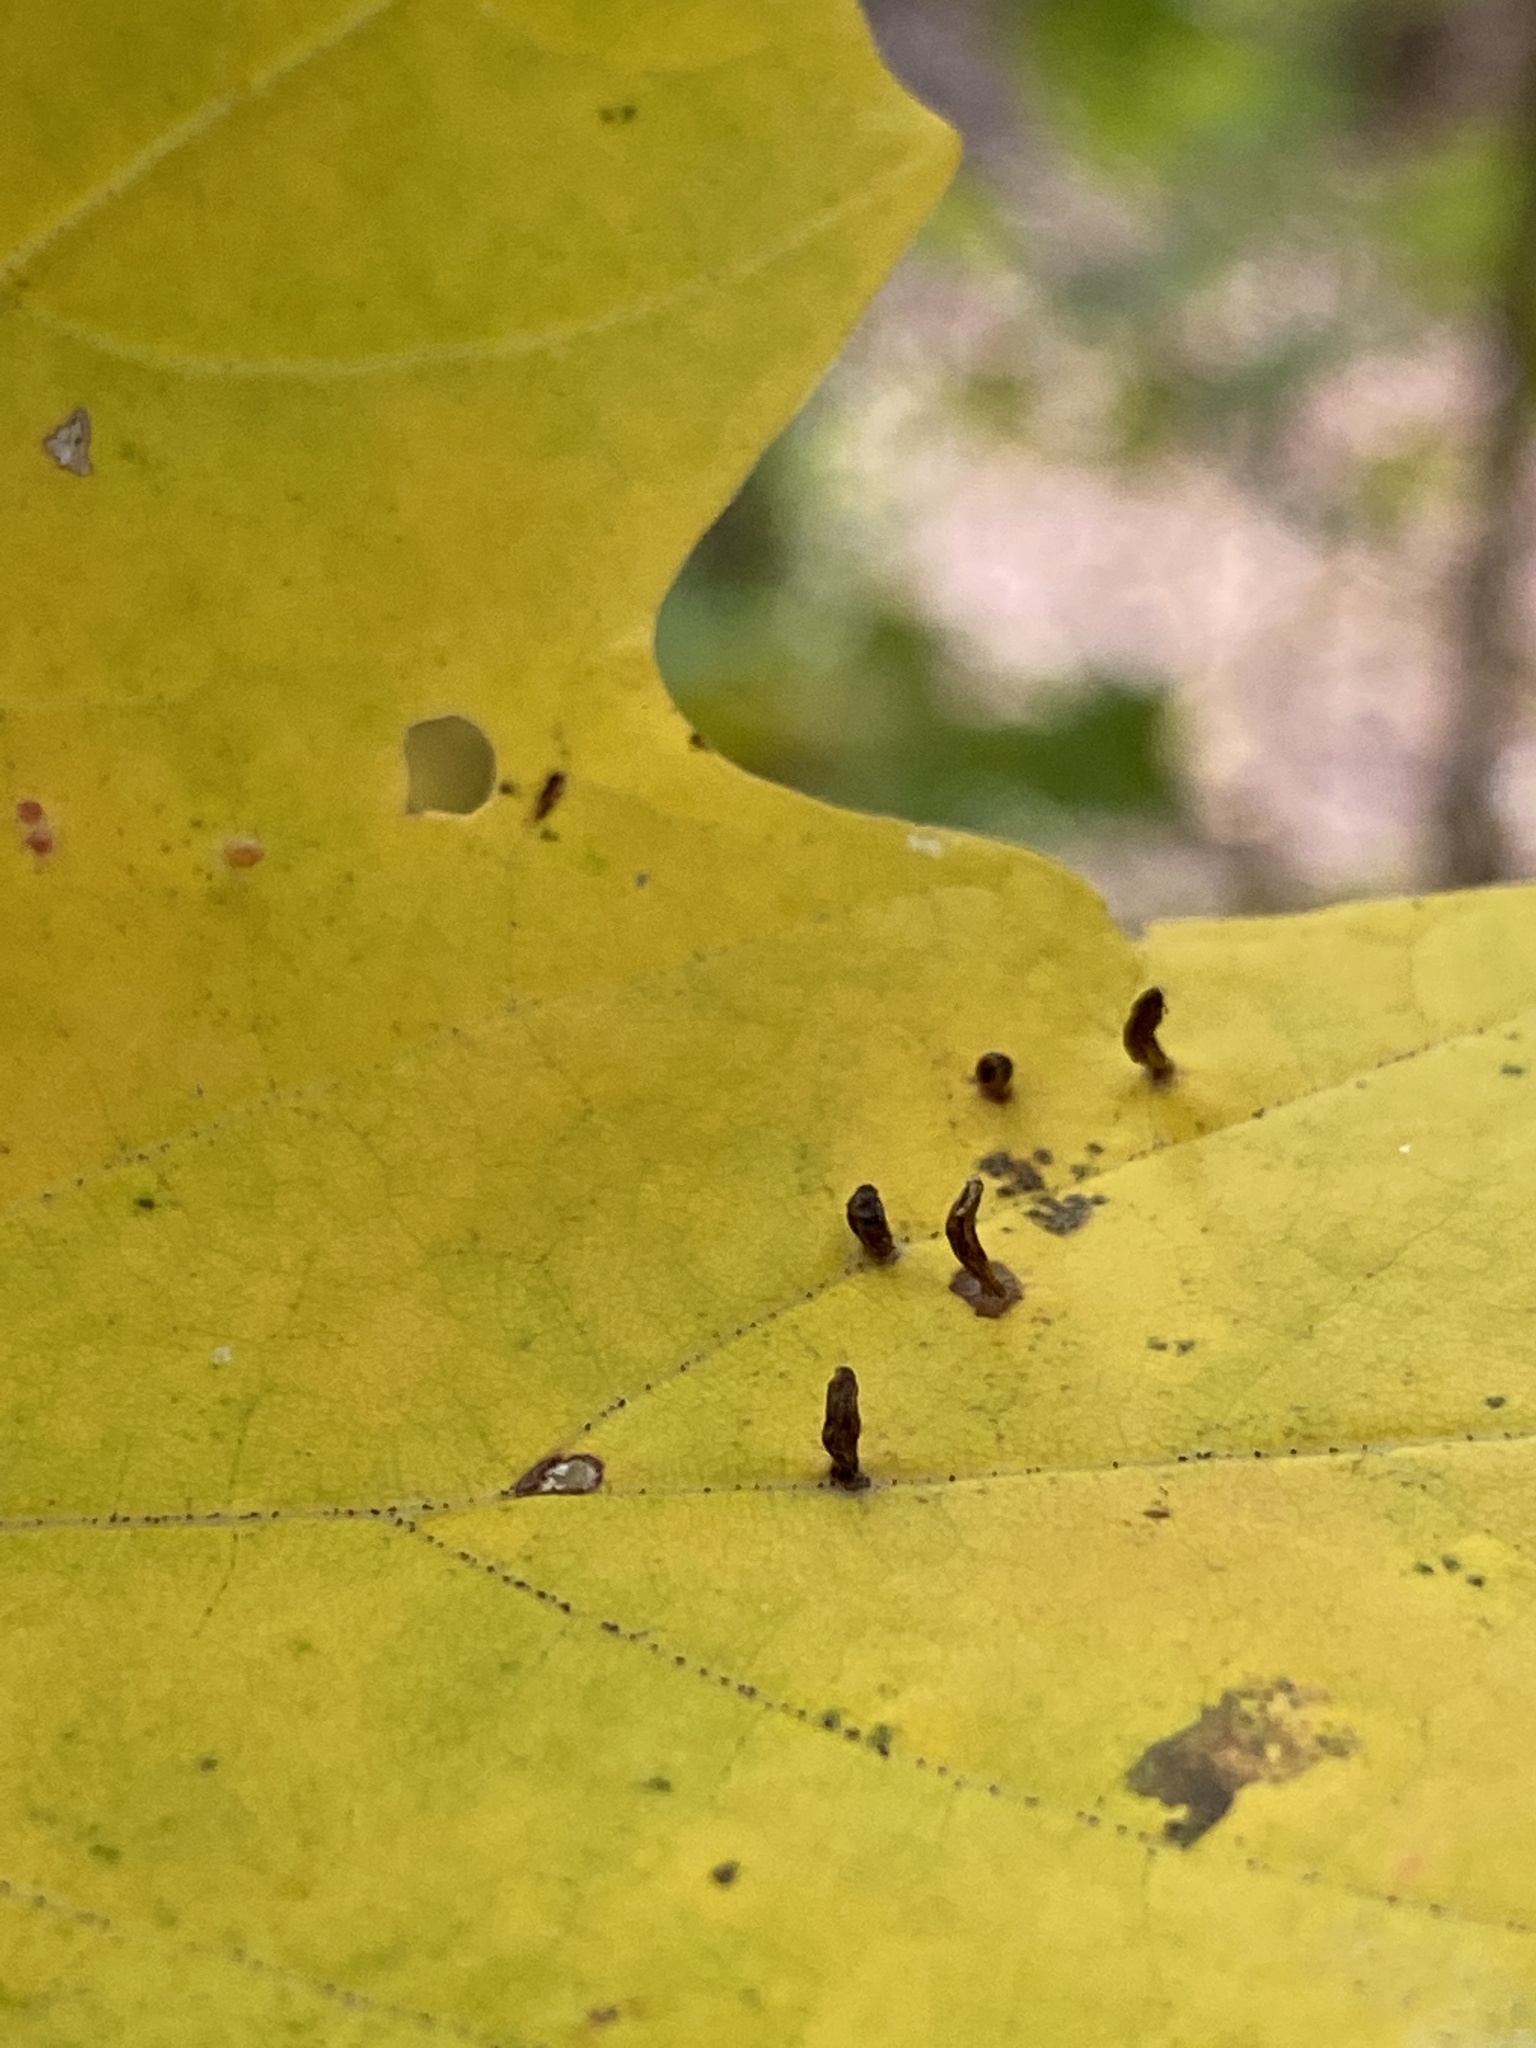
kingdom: Animalia
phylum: Arthropoda
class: Arachnida
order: Trombidiformes
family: Eriophyidae
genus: Vasates
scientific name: Vasates aceriscrumena
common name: Maple spindle gall mite
